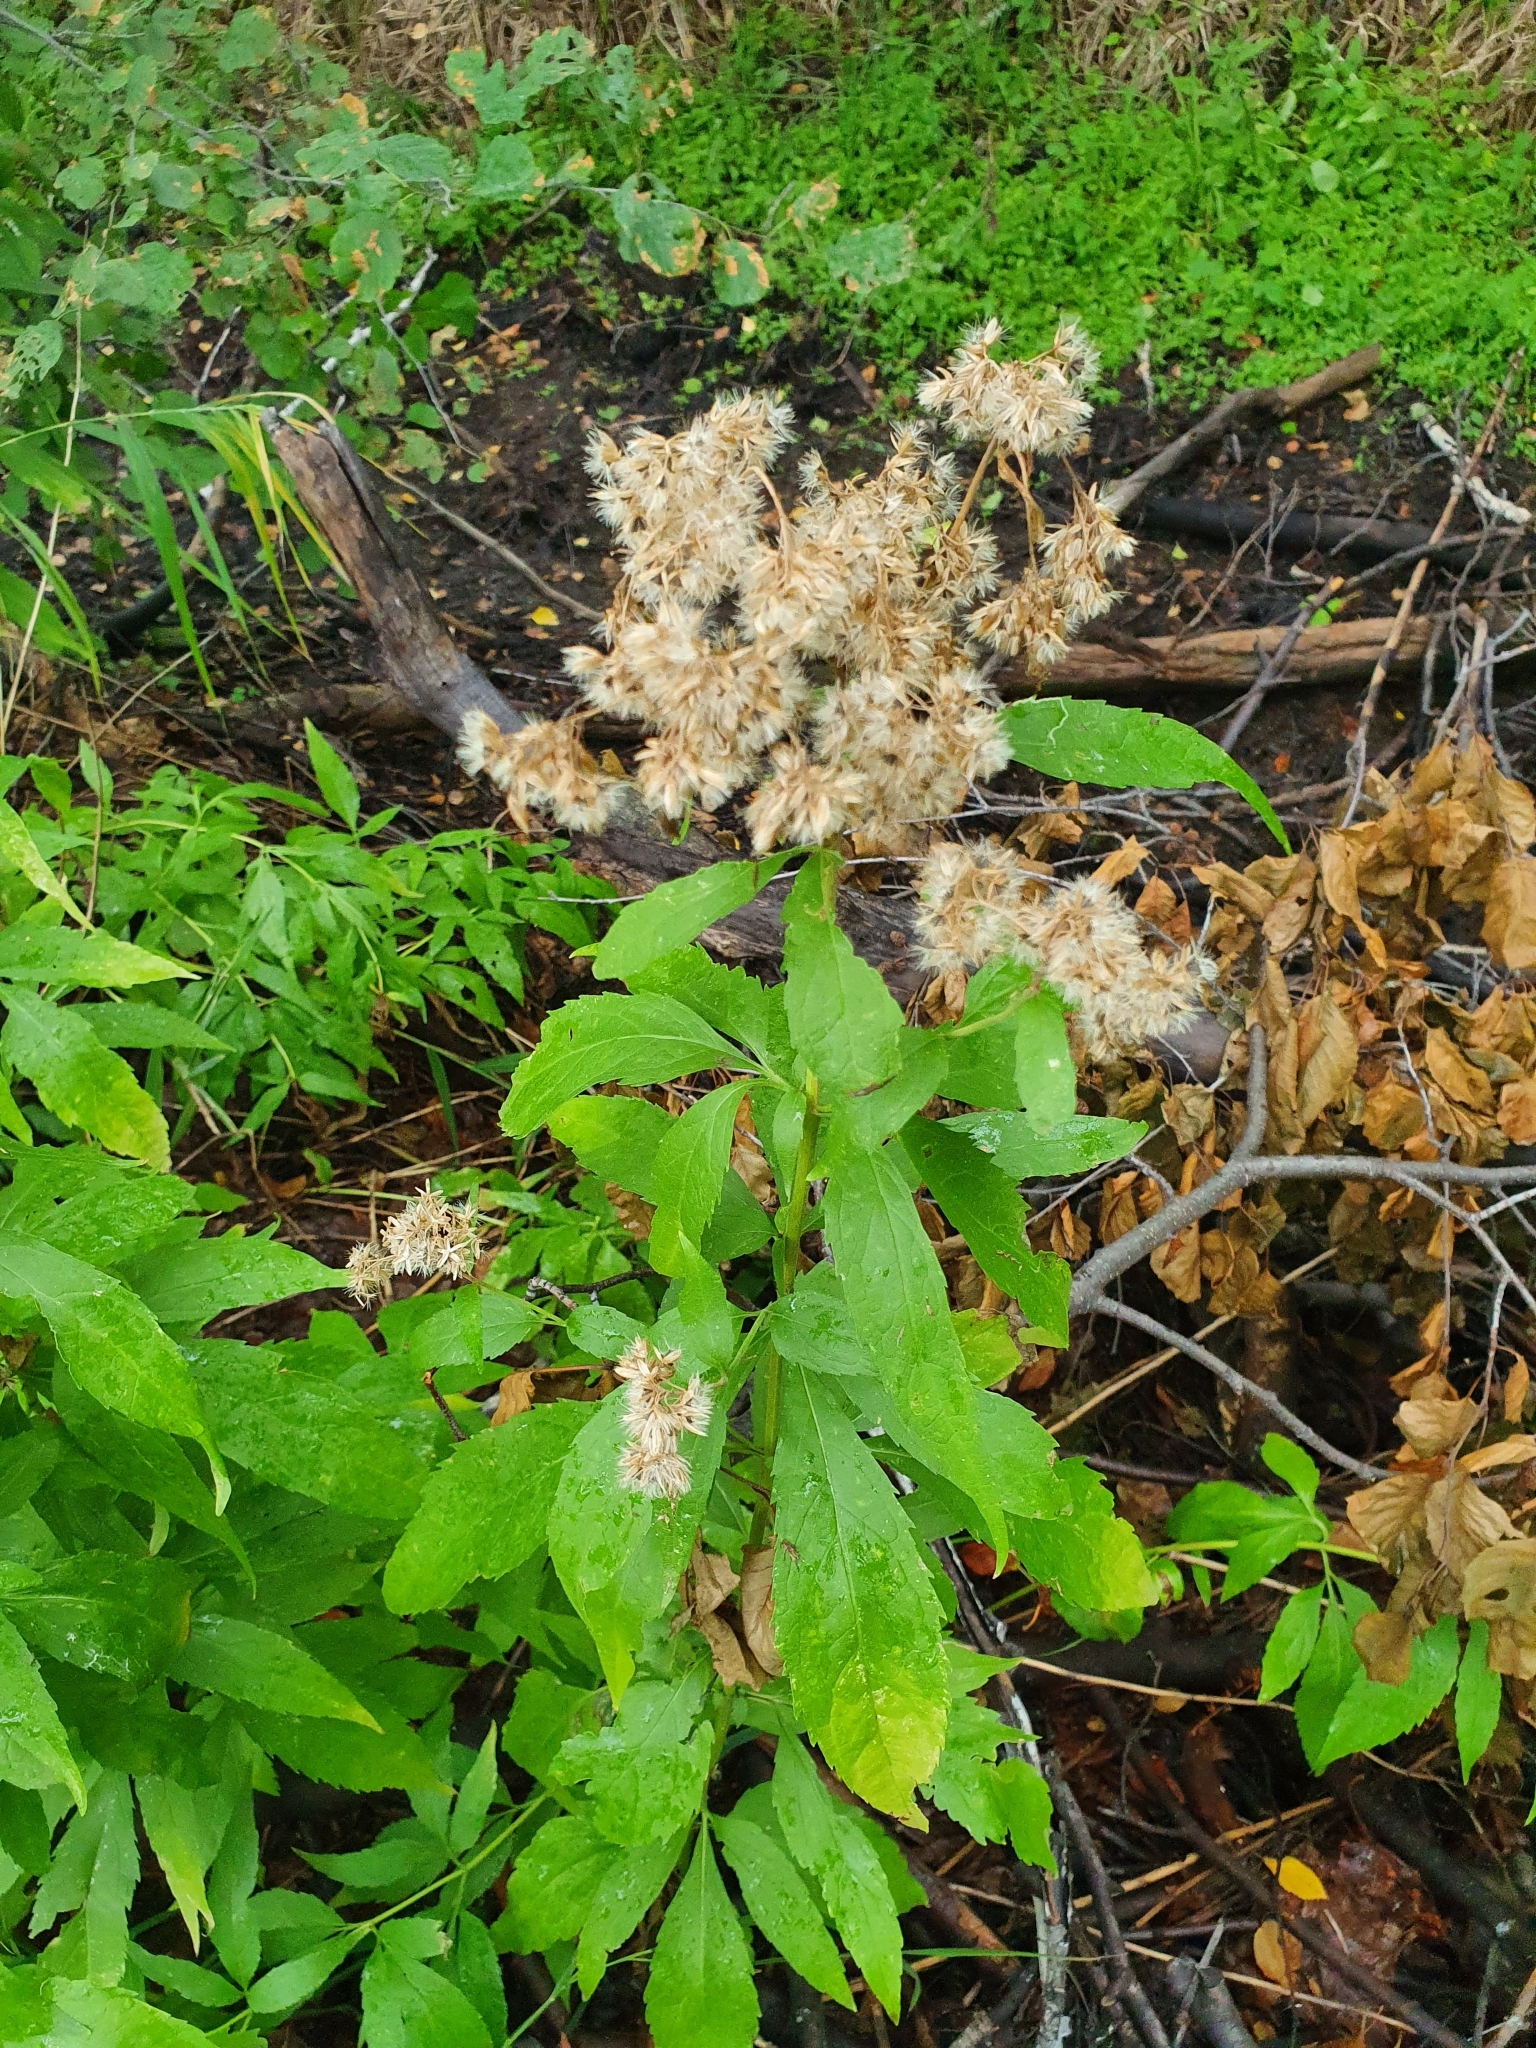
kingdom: Plantae
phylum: Tracheophyta
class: Magnoliopsida
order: Asterales
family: Asteraceae
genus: Eupatorium
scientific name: Eupatorium cannabinum
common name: Hemp-agrimony
